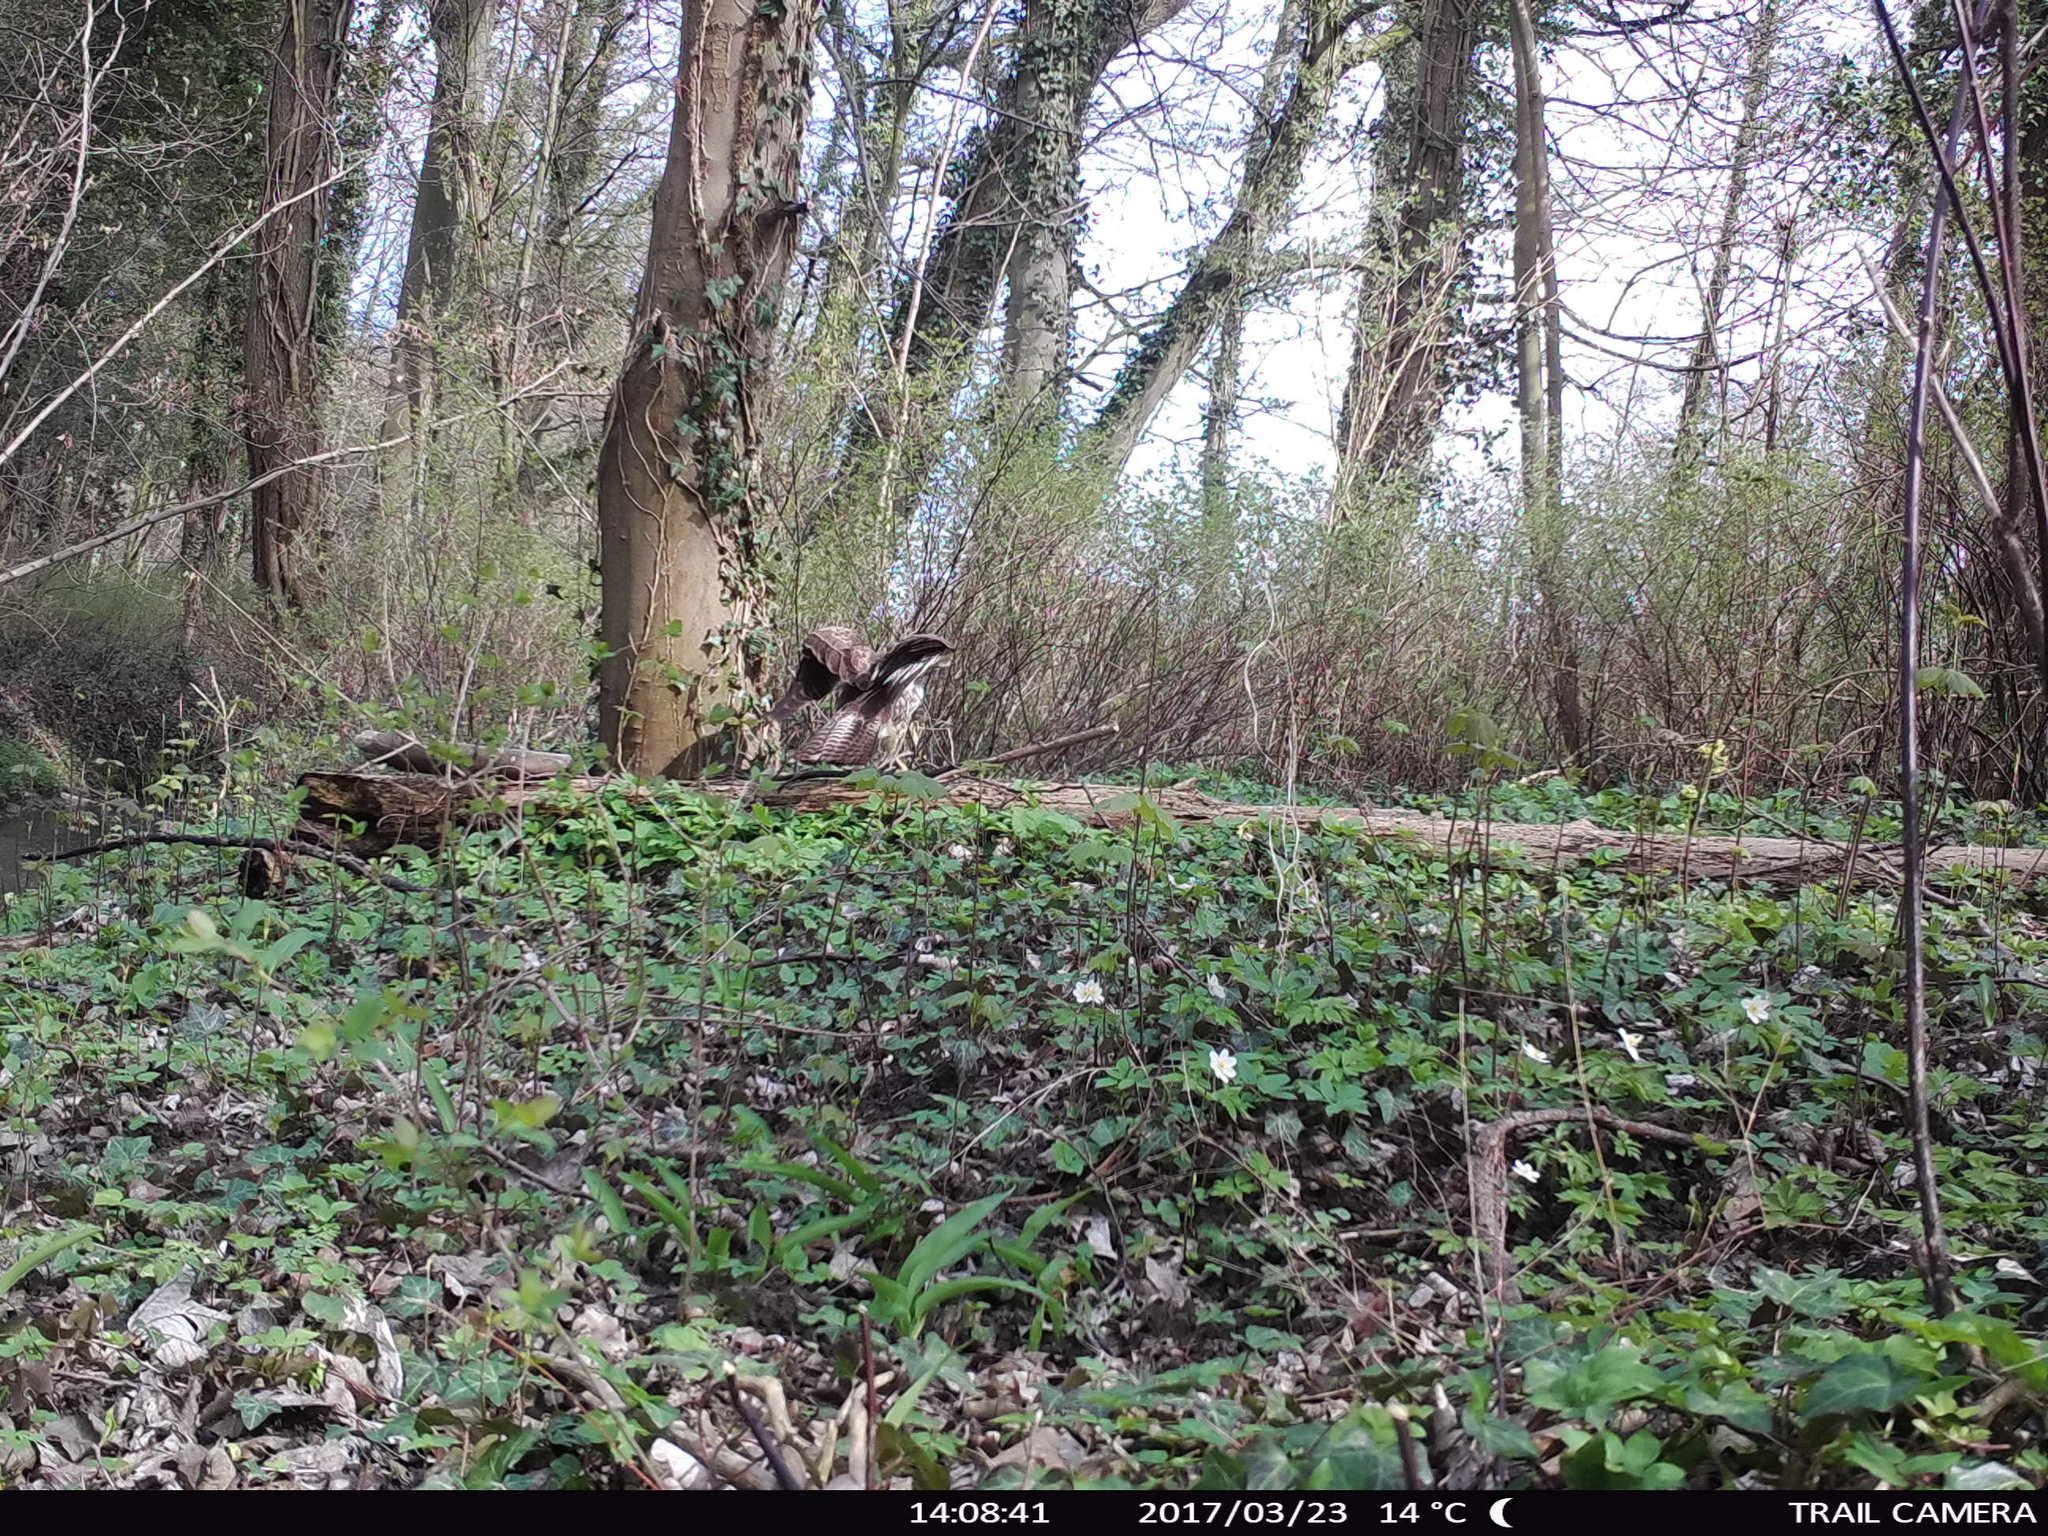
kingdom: Animalia
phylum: Chordata
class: Aves
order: Accipitriformes
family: Accipitridae
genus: Buteo
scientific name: Buteo buteo
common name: Common buzzard
